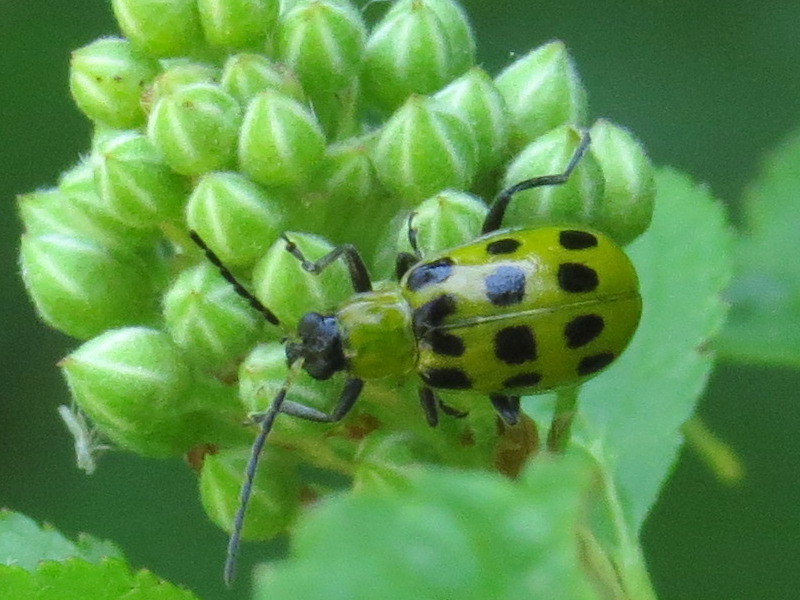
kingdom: Animalia
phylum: Arthropoda
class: Insecta
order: Coleoptera
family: Chrysomelidae
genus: Diabrotica
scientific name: Diabrotica undecimpunctata
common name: Spotted cucumber beetle
